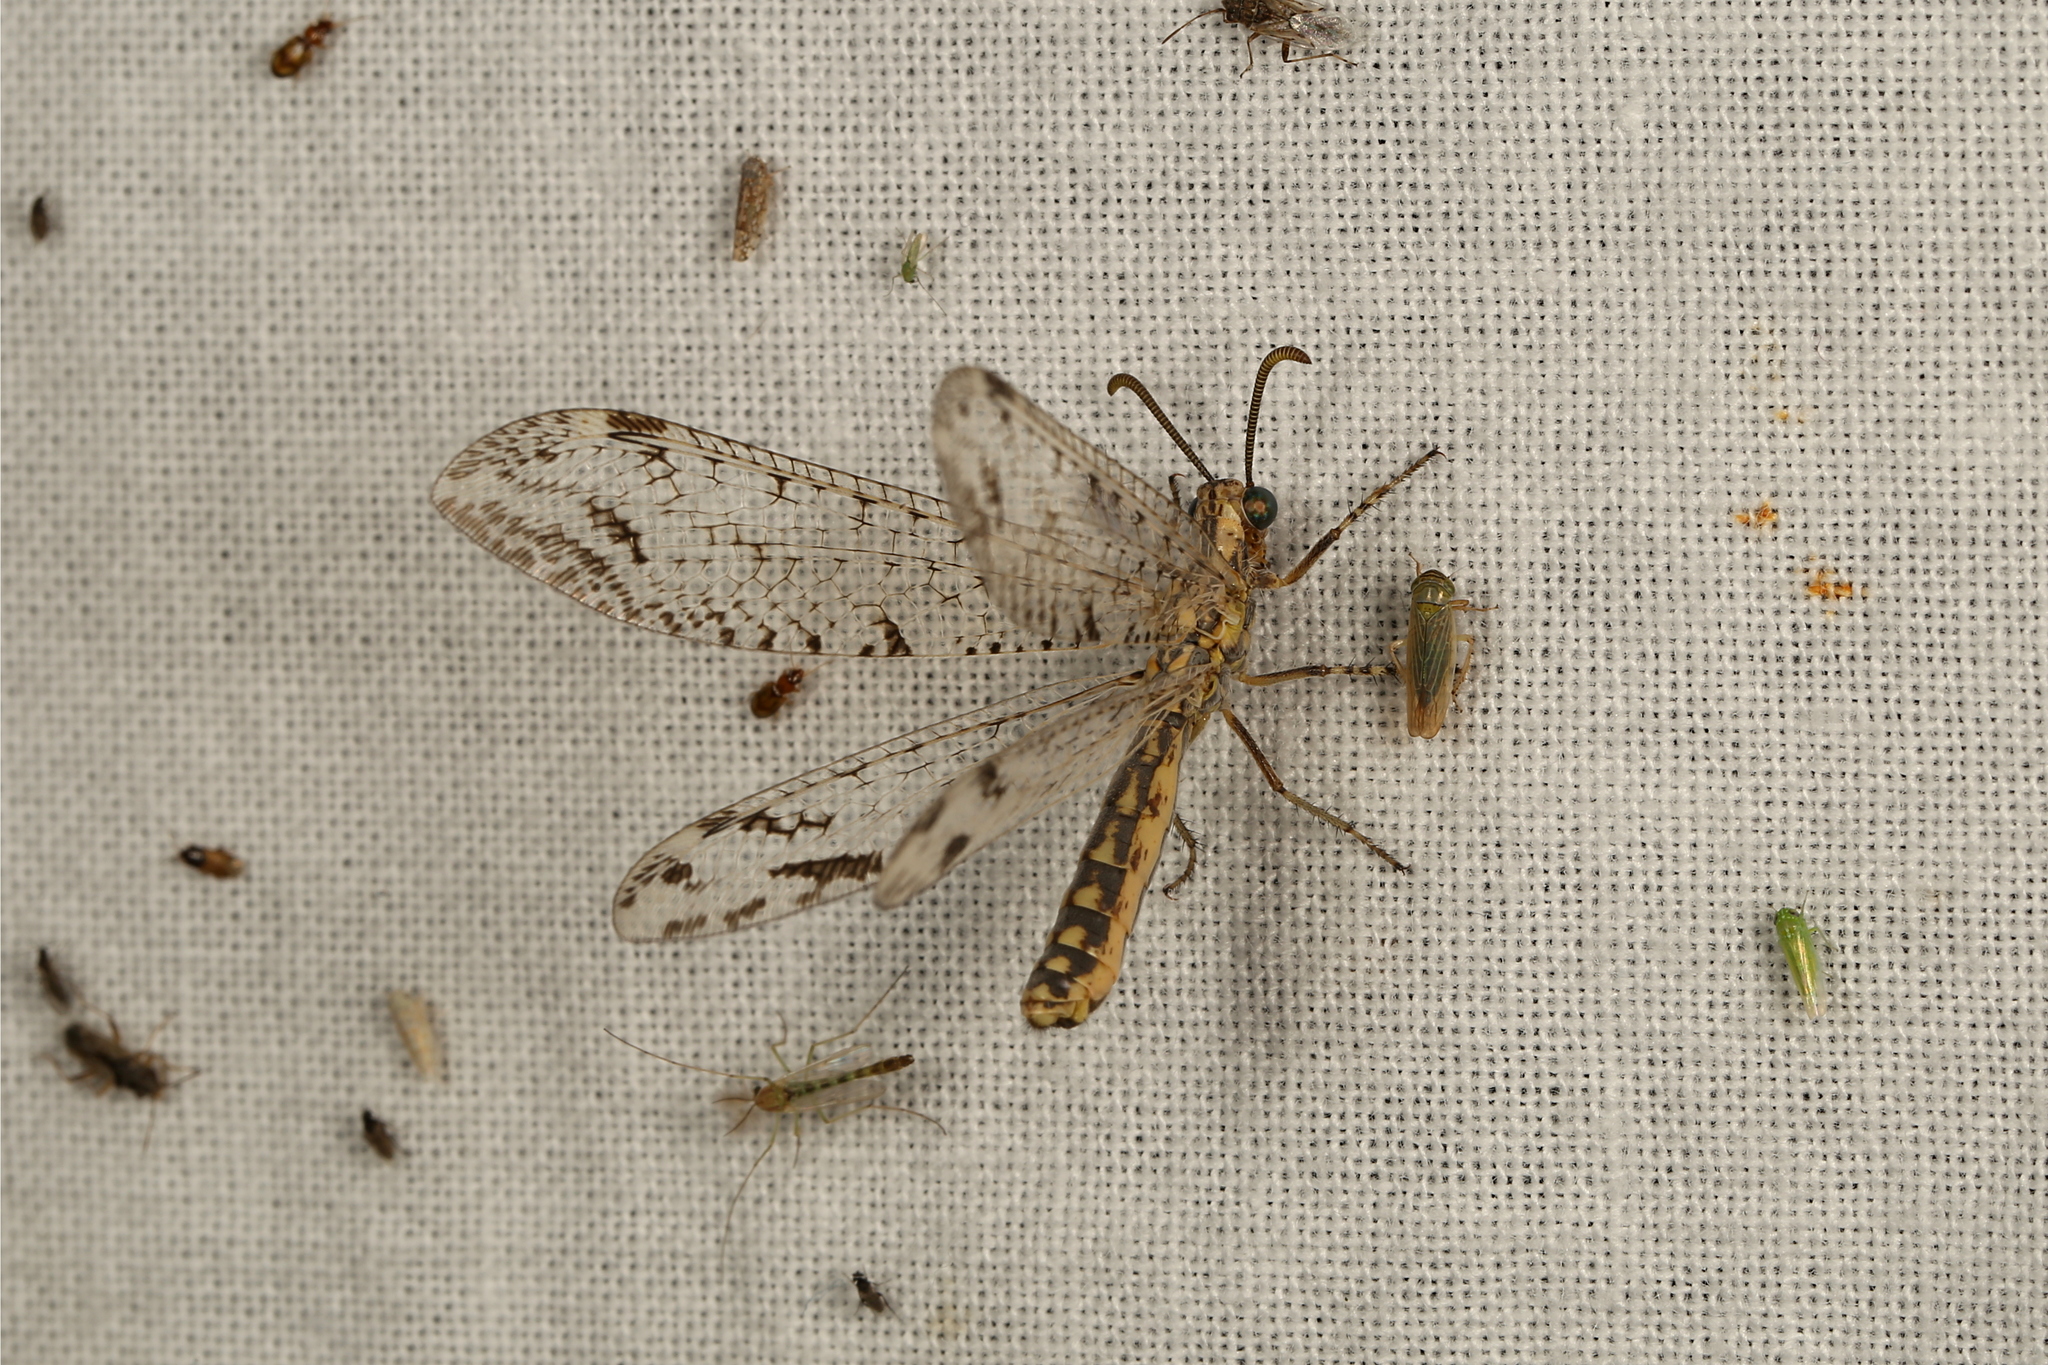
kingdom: Animalia
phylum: Arthropoda
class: Insecta
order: Neuroptera
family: Myrmeleontidae
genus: Austrogymnocnemia
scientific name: Austrogymnocnemia maculata
